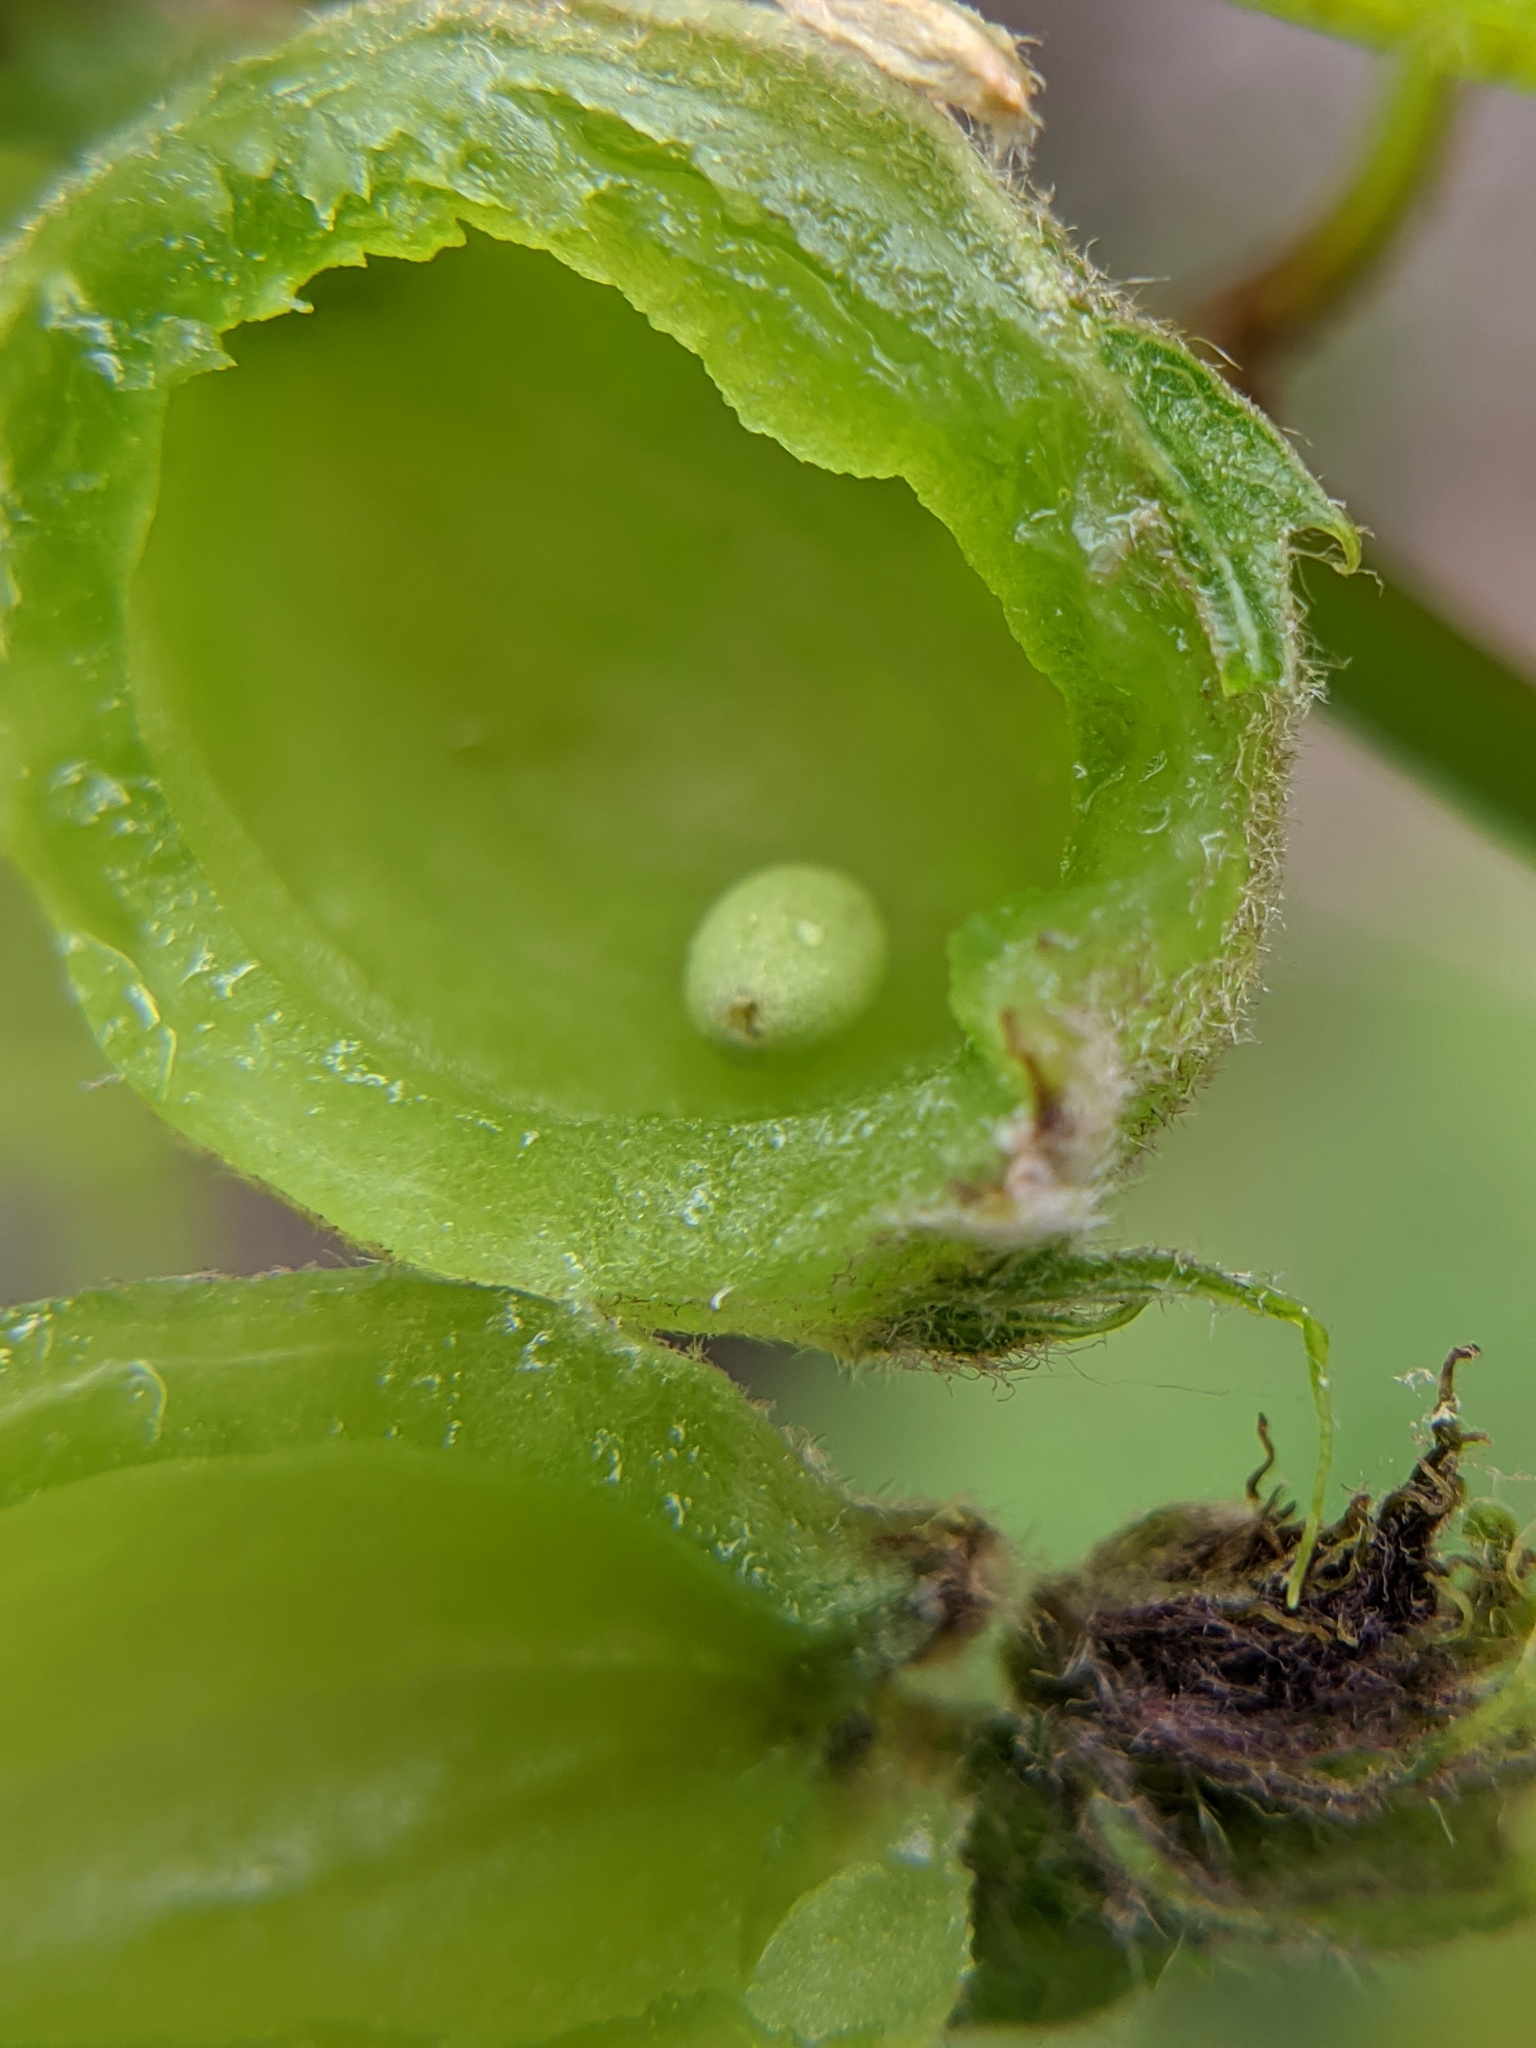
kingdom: Animalia
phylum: Arthropoda
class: Insecta
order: Hymenoptera
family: Cynipidae
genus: Dryocosmus
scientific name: Dryocosmus quercuspalustris
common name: Succulent oak gall wasp
